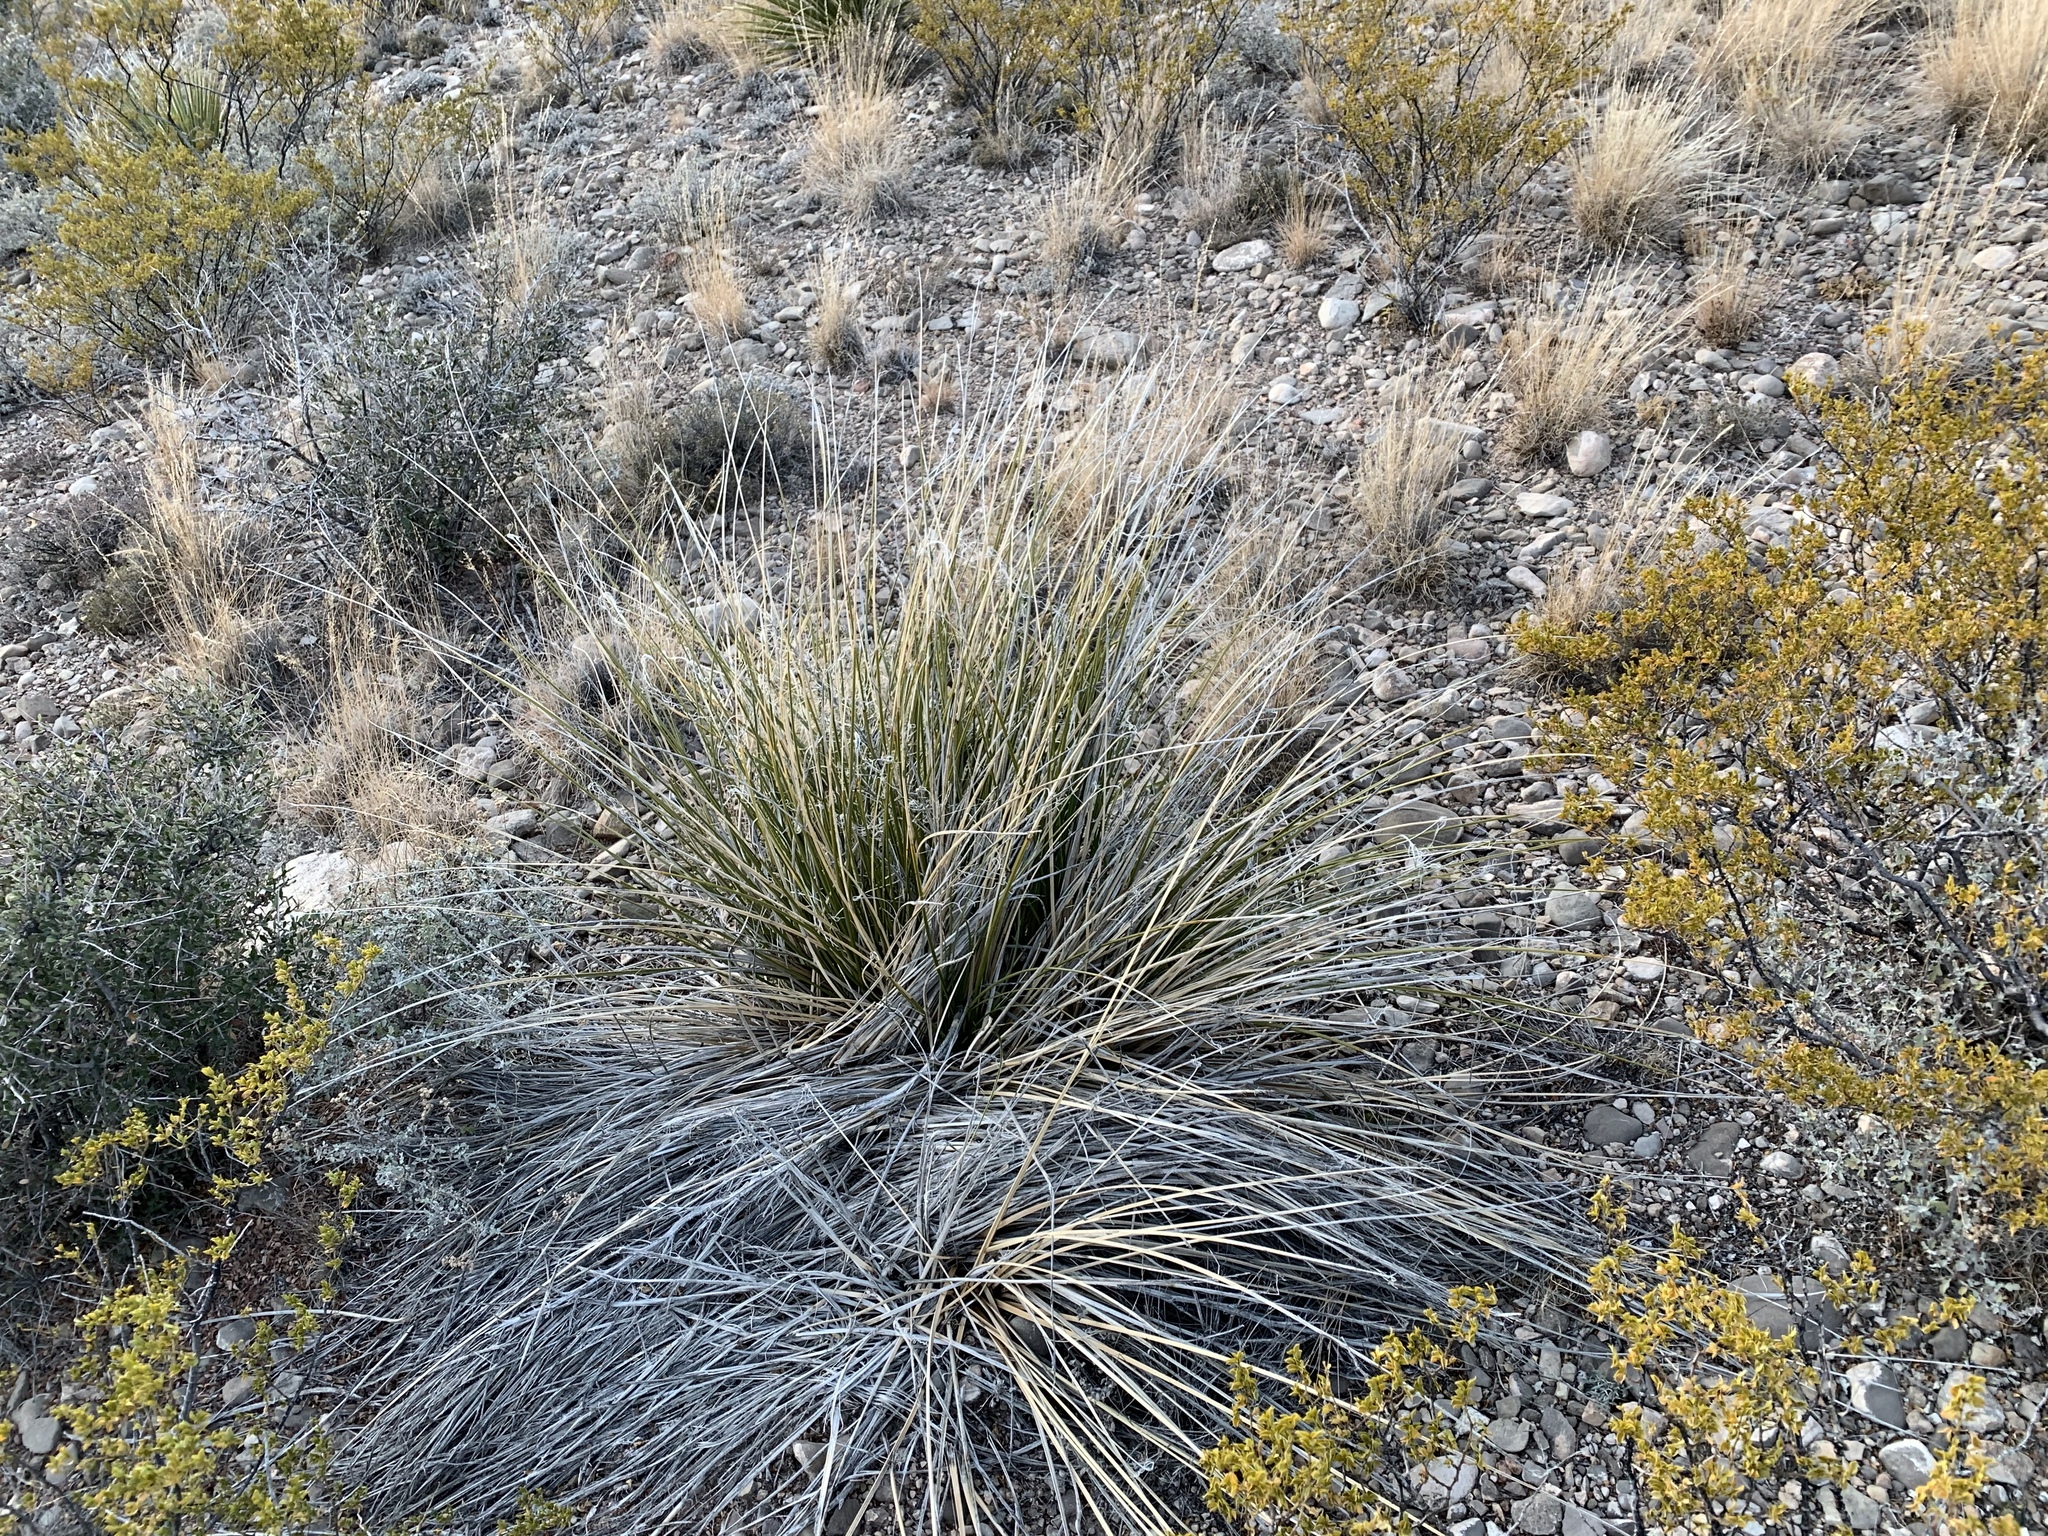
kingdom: Plantae
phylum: Tracheophyta
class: Liliopsida
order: Asparagales
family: Asparagaceae
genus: Nolina
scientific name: Nolina texana
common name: Texas sacahuiste
